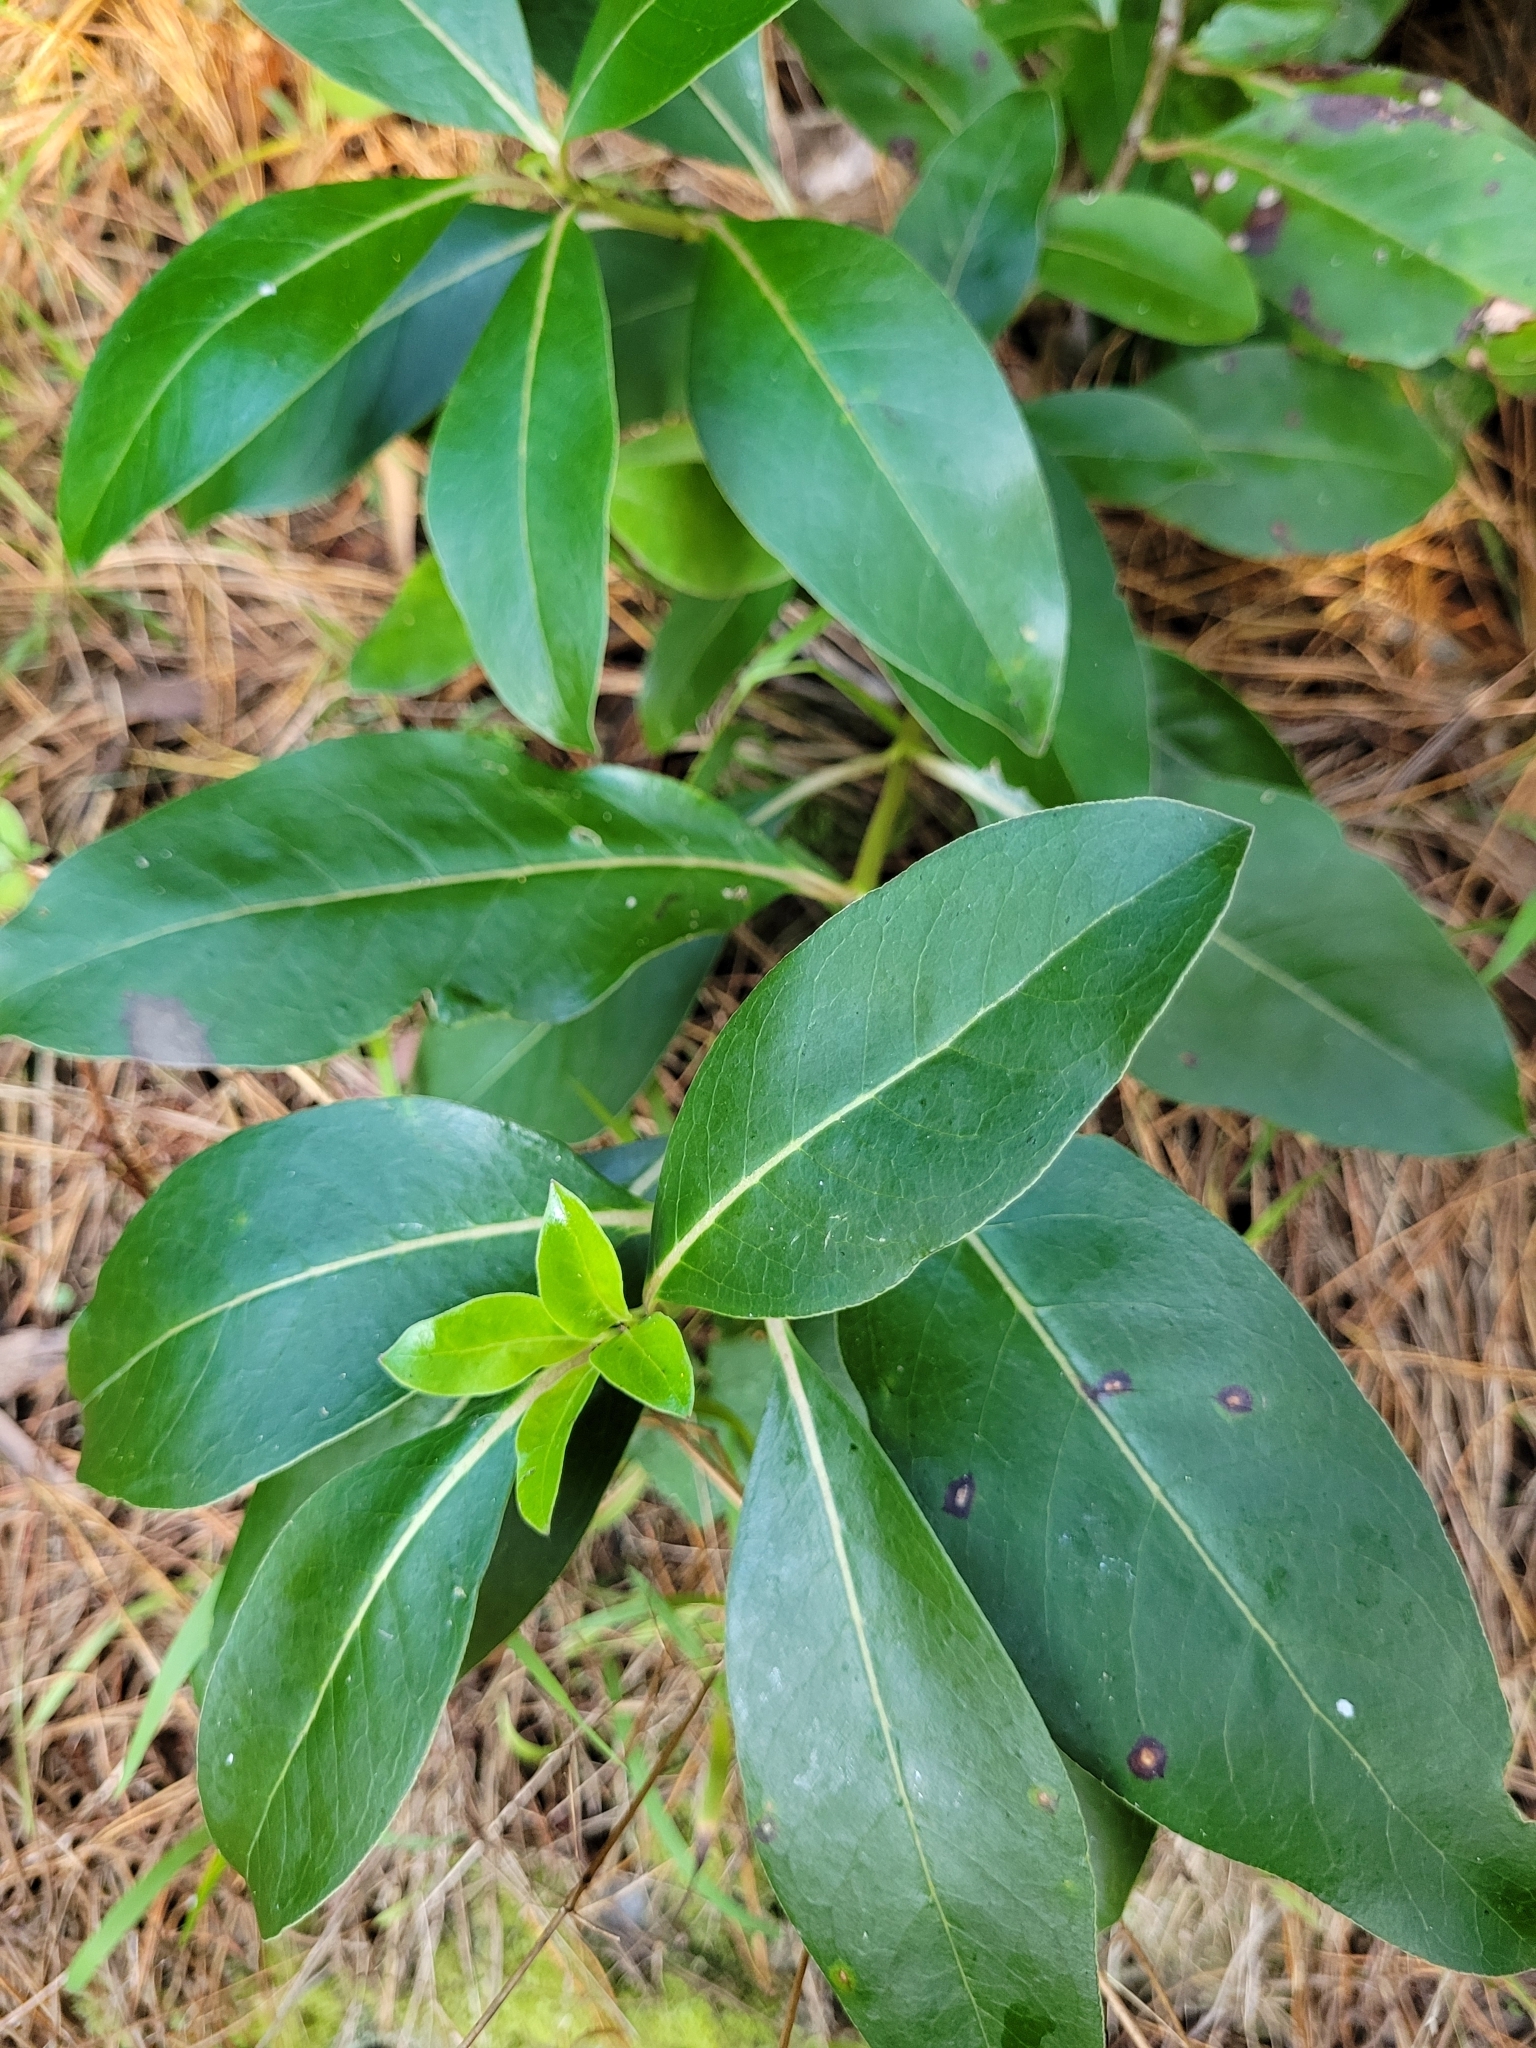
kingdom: Plantae
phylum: Tracheophyta
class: Magnoliopsida
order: Gentianales
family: Rubiaceae
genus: Coprosma
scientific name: Coprosma robusta
